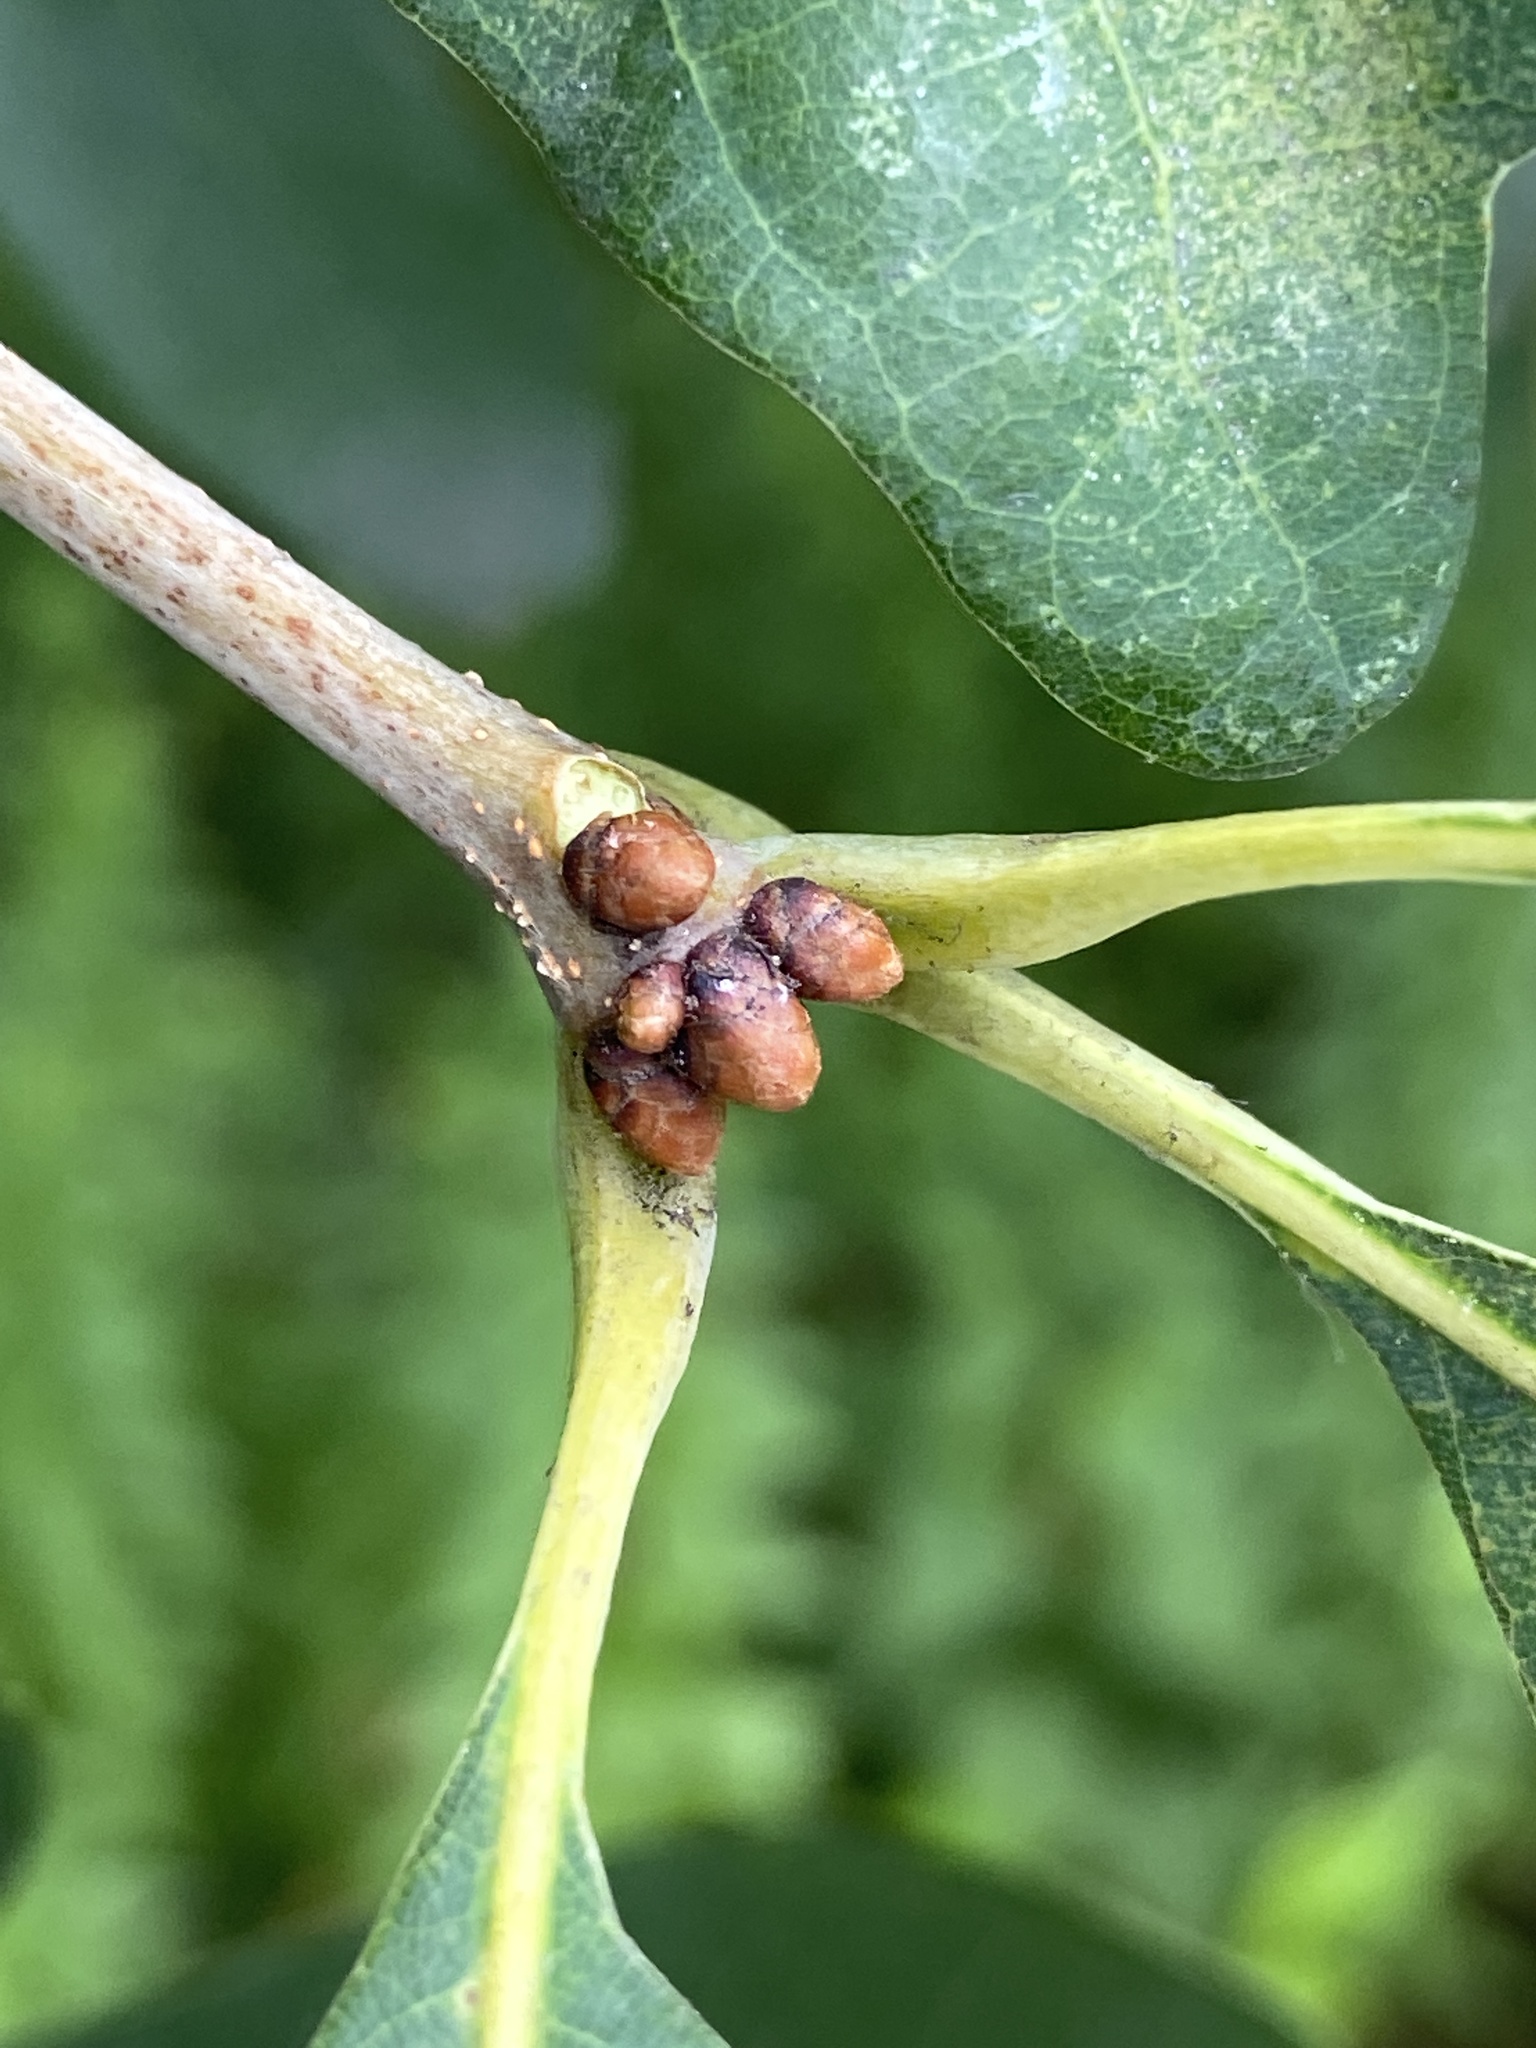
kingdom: Plantae
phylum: Tracheophyta
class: Magnoliopsida
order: Fagales
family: Fagaceae
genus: Quercus
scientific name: Quercus alba
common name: White oak
